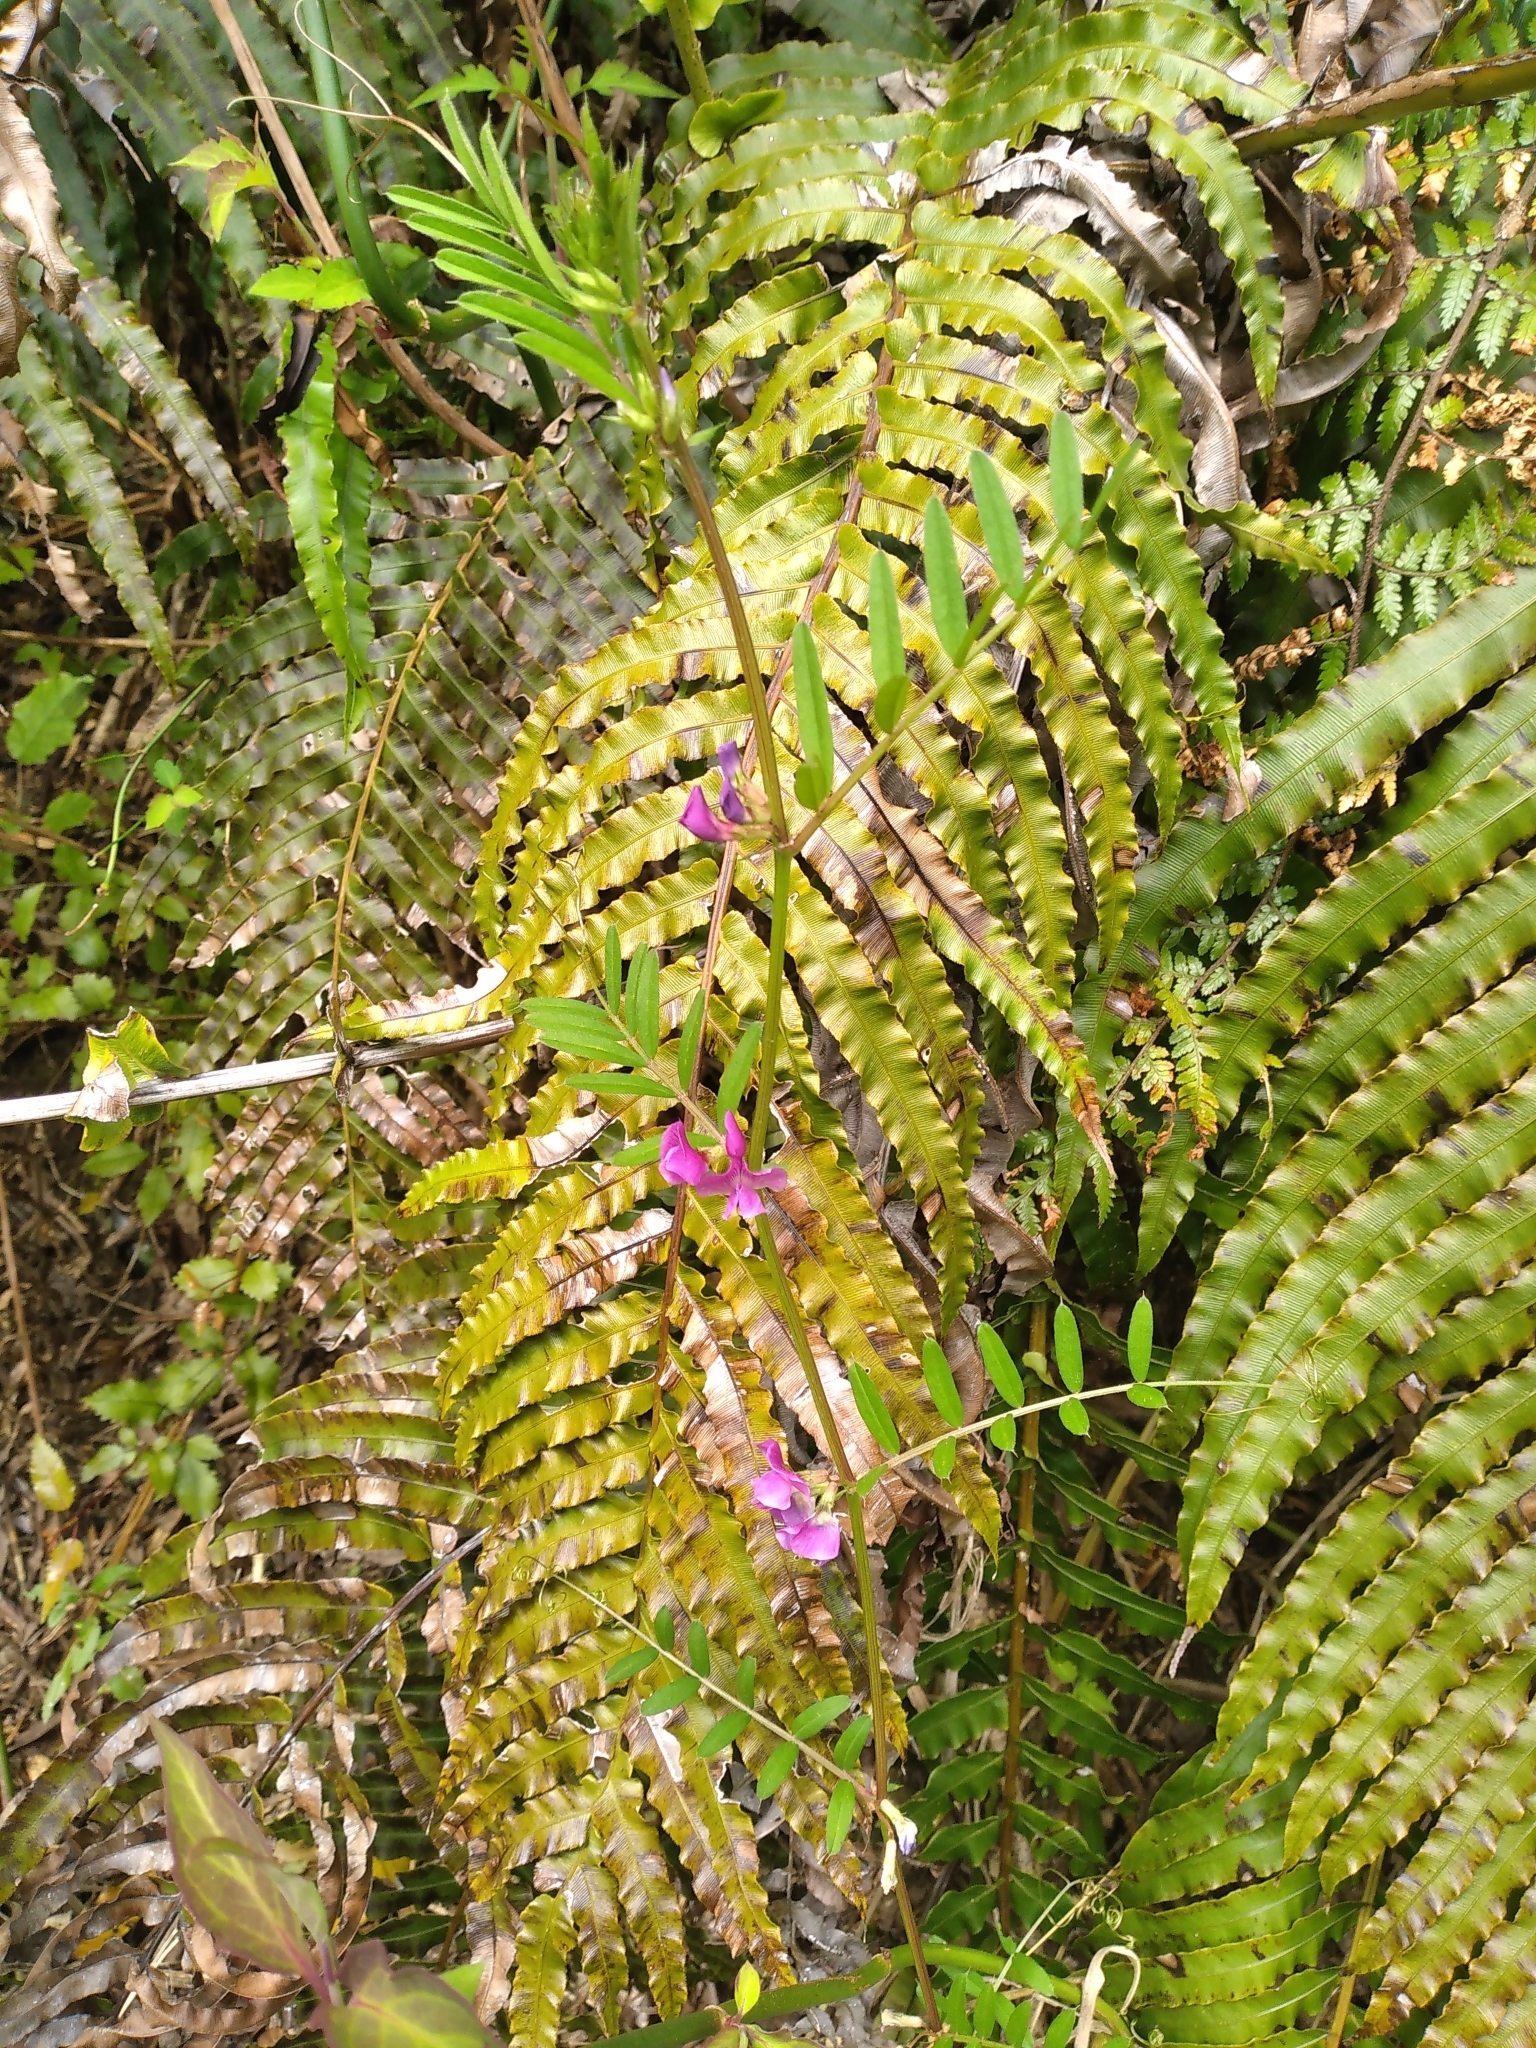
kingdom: Plantae
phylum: Tracheophyta
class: Magnoliopsida
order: Fabales
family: Fabaceae
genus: Vicia
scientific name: Vicia sativa
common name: Garden vetch
